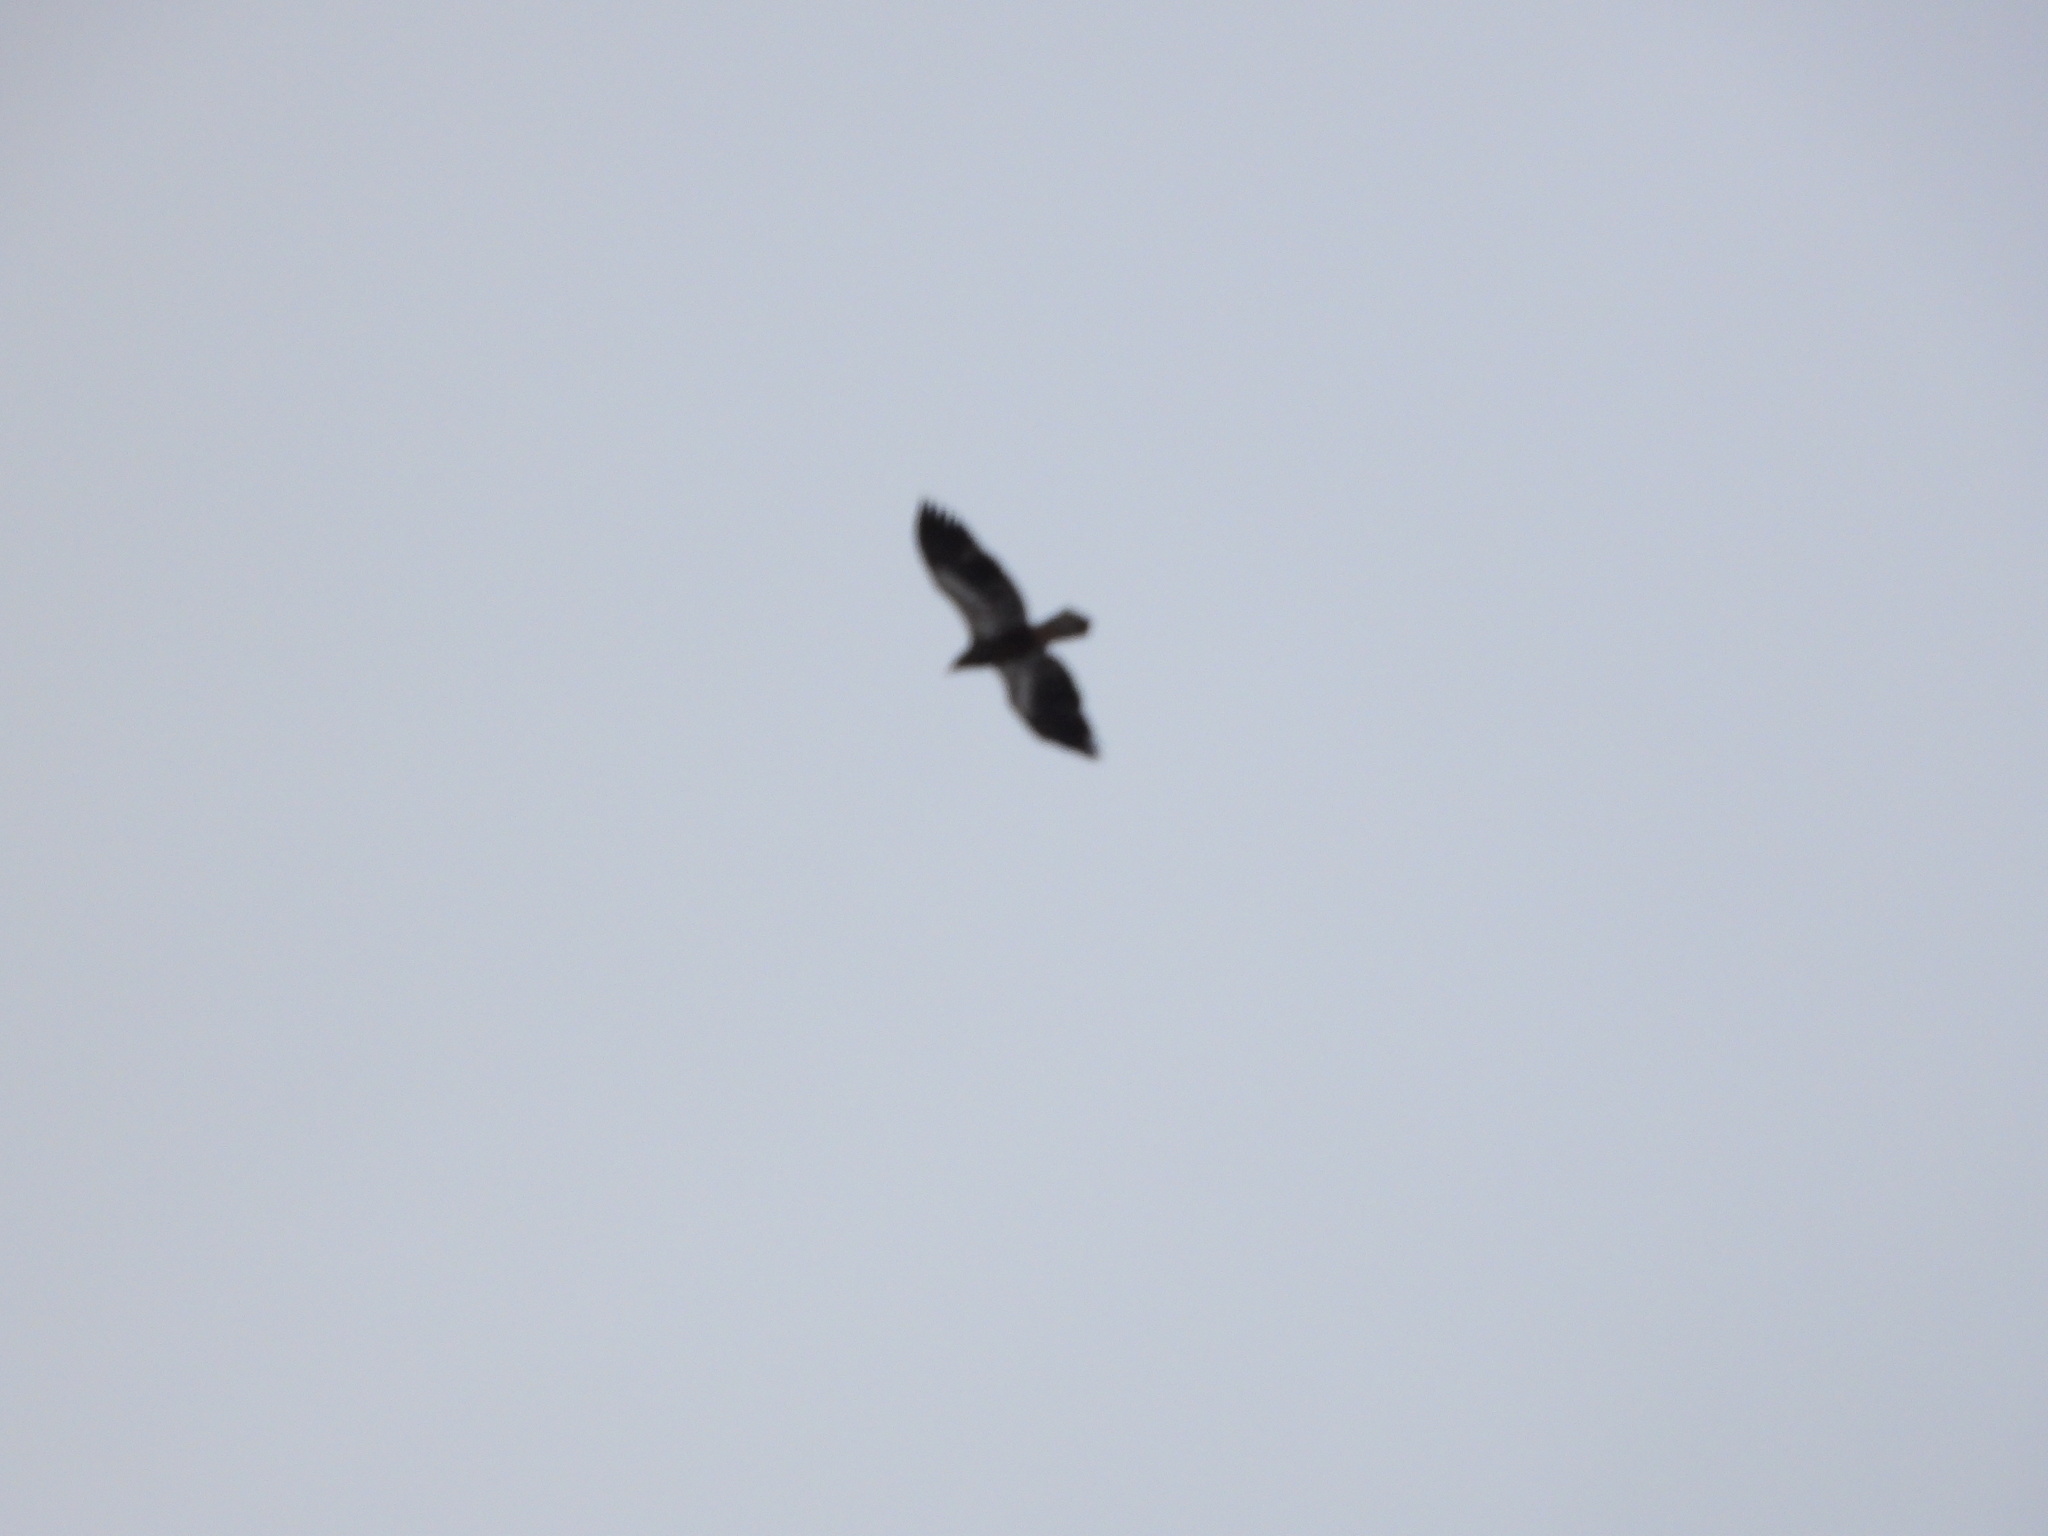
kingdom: Animalia
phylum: Chordata
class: Aves
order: Accipitriformes
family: Accipitridae
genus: Haliaeetus
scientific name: Haliaeetus leucocephalus
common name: Bald eagle
